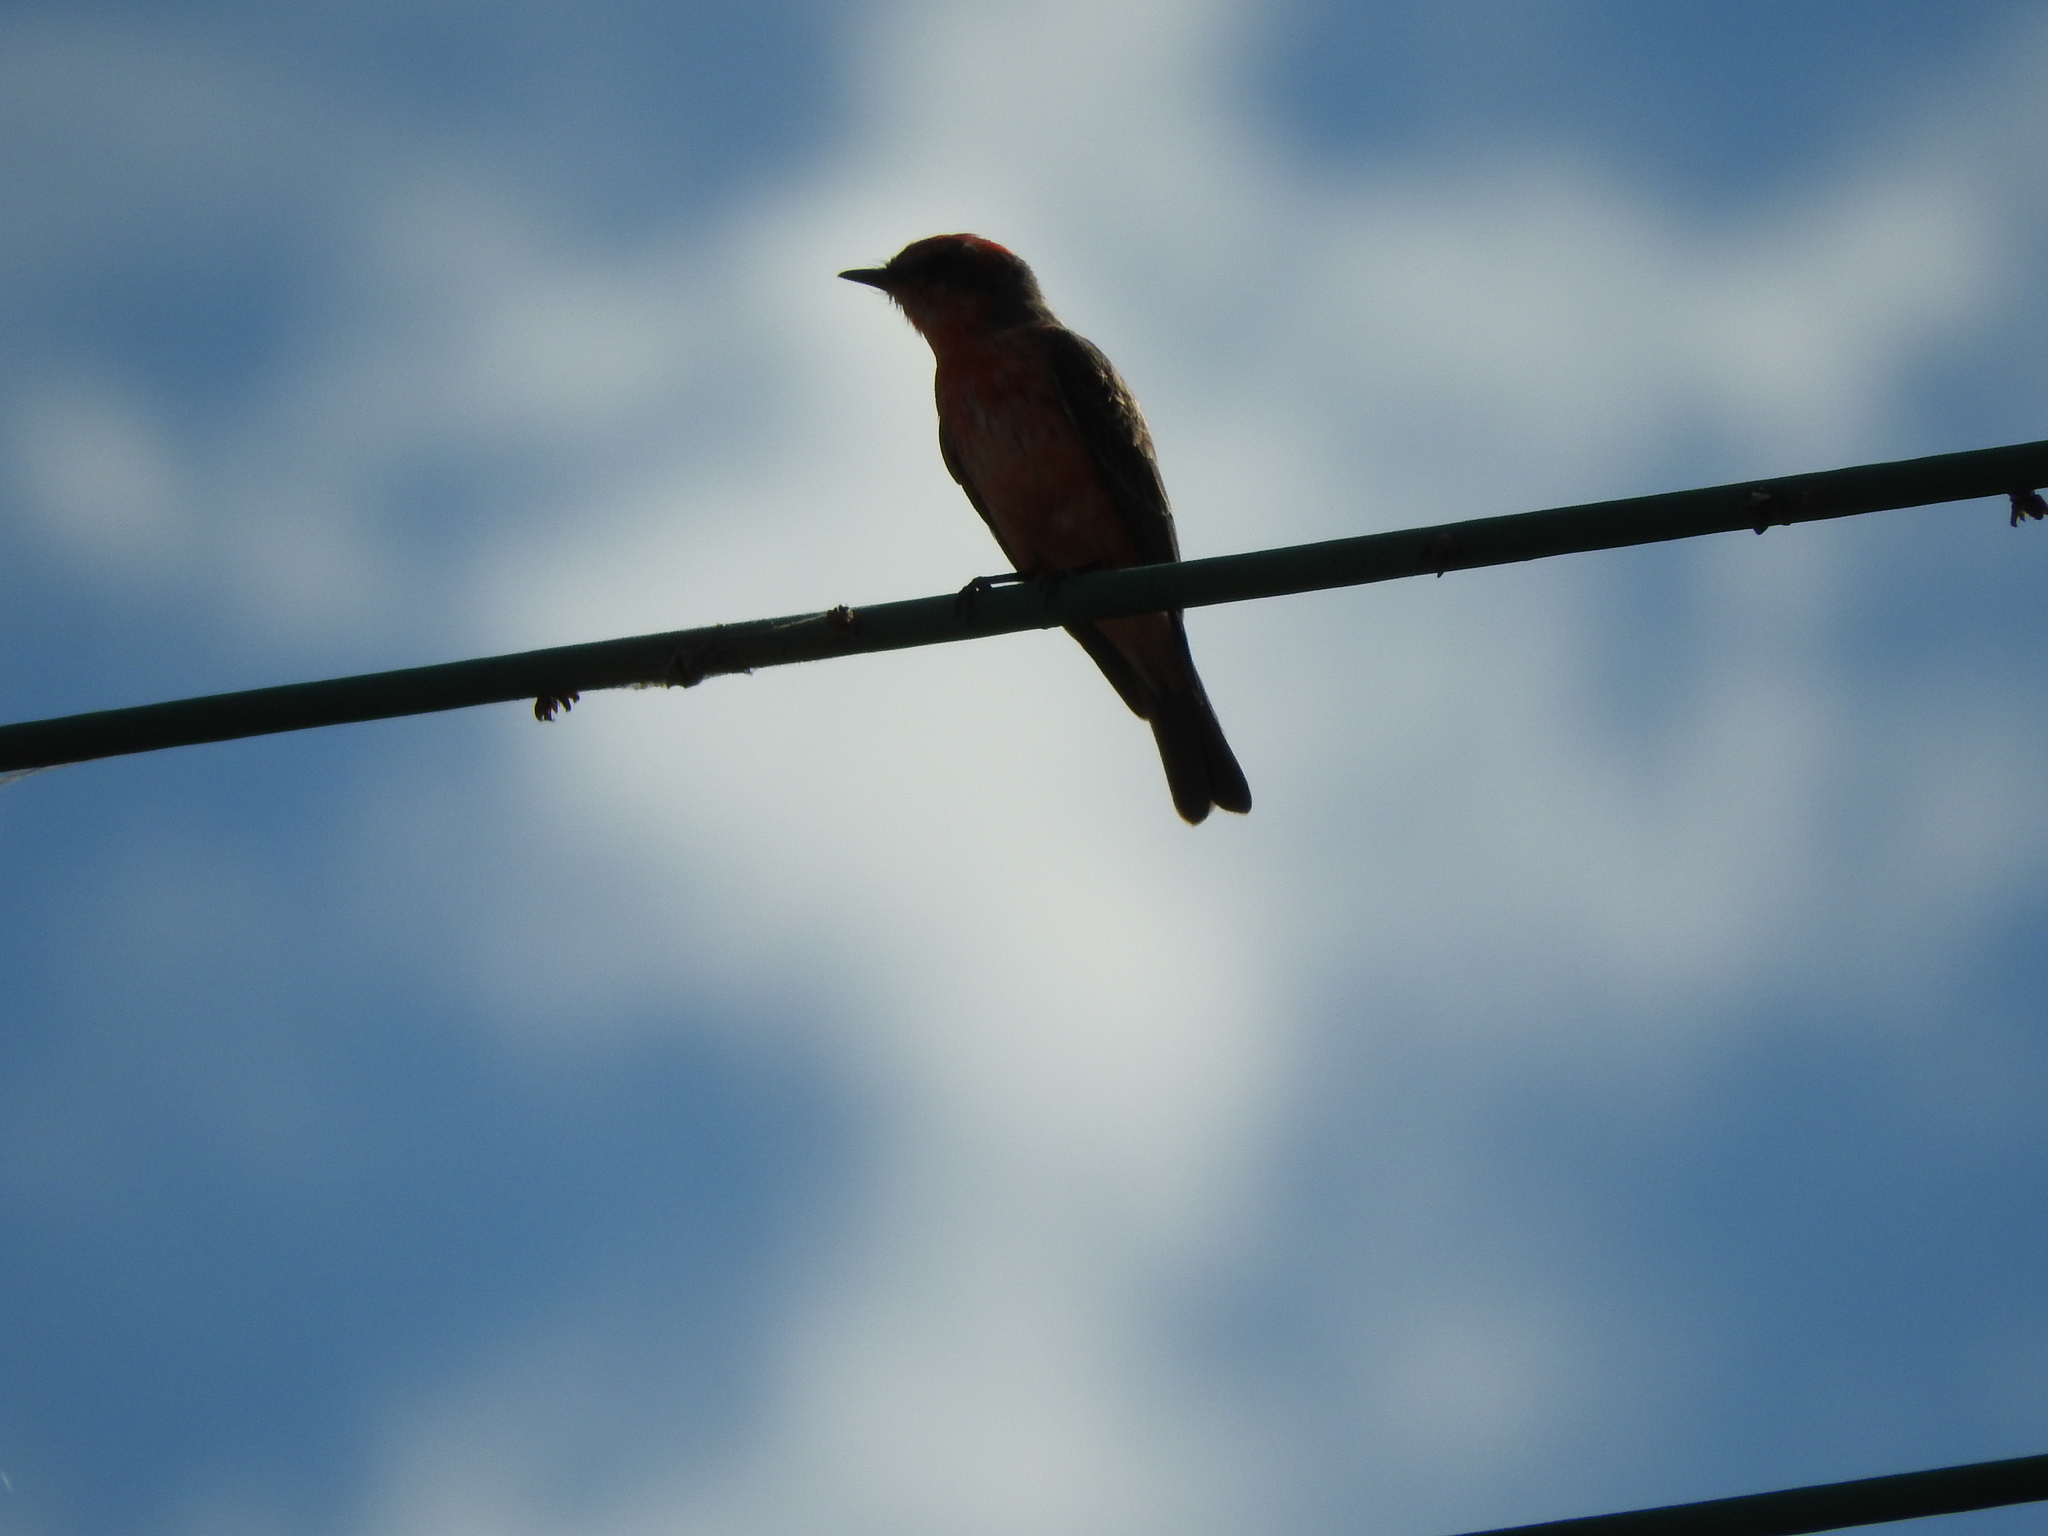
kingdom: Animalia
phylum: Chordata
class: Aves
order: Passeriformes
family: Tyrannidae
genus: Pyrocephalus
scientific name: Pyrocephalus rubinus
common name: Vermilion flycatcher
